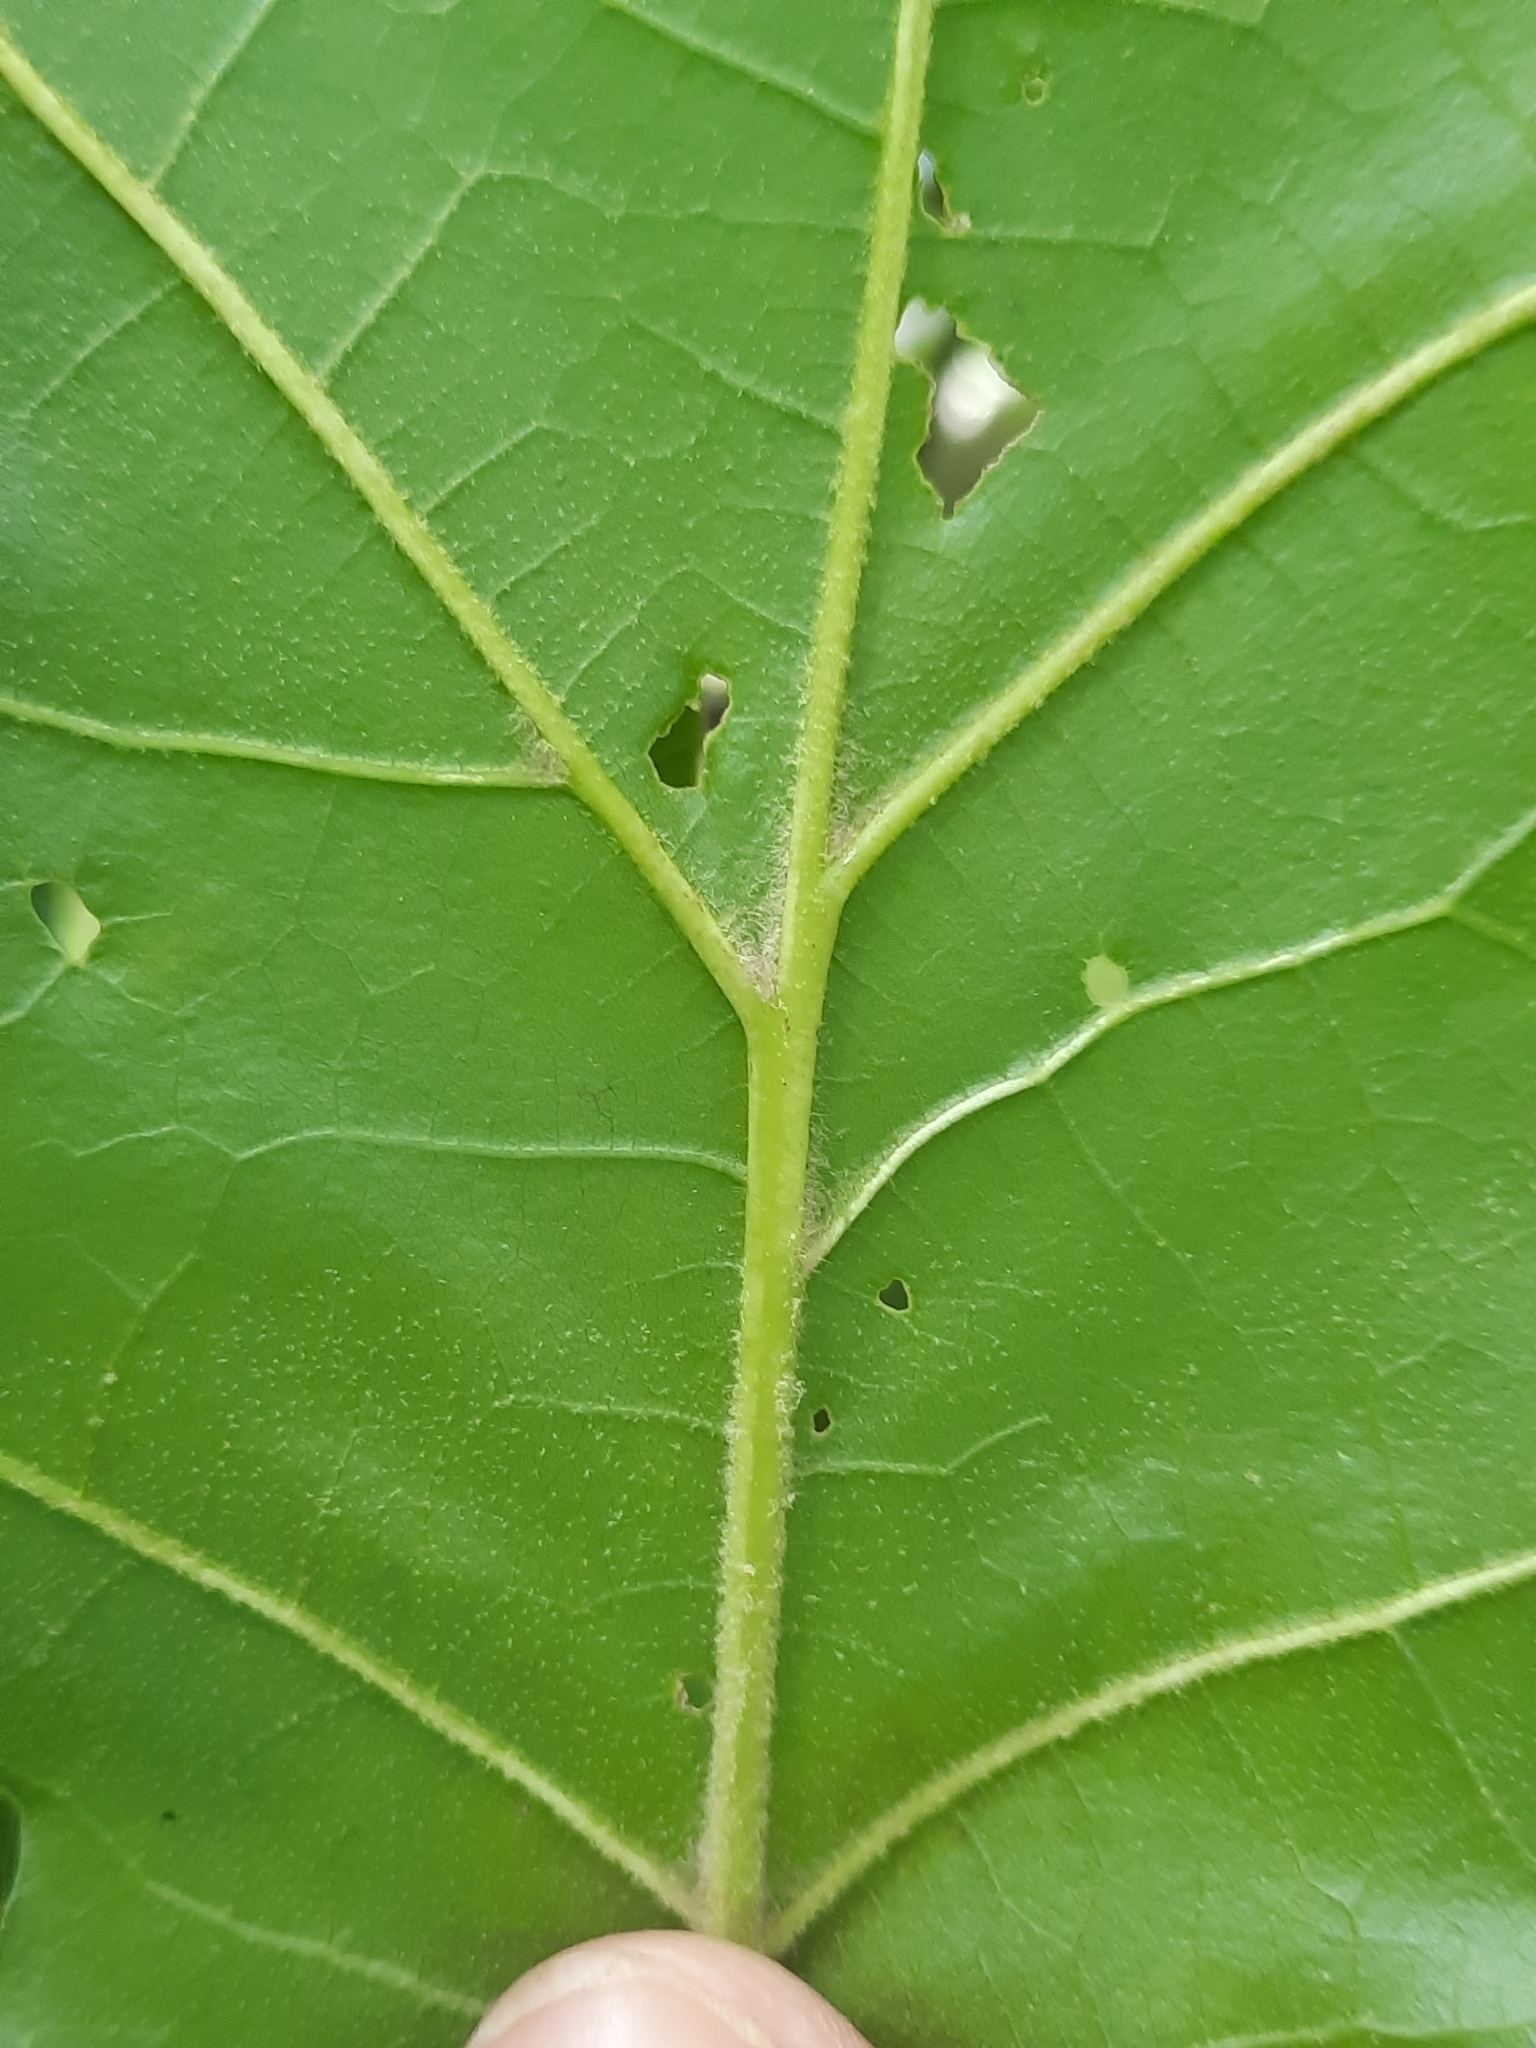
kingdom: Plantae
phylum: Tracheophyta
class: Magnoliopsida
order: Fagales
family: Fagaceae
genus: Quercus
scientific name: Quercus velutina
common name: Black oak
